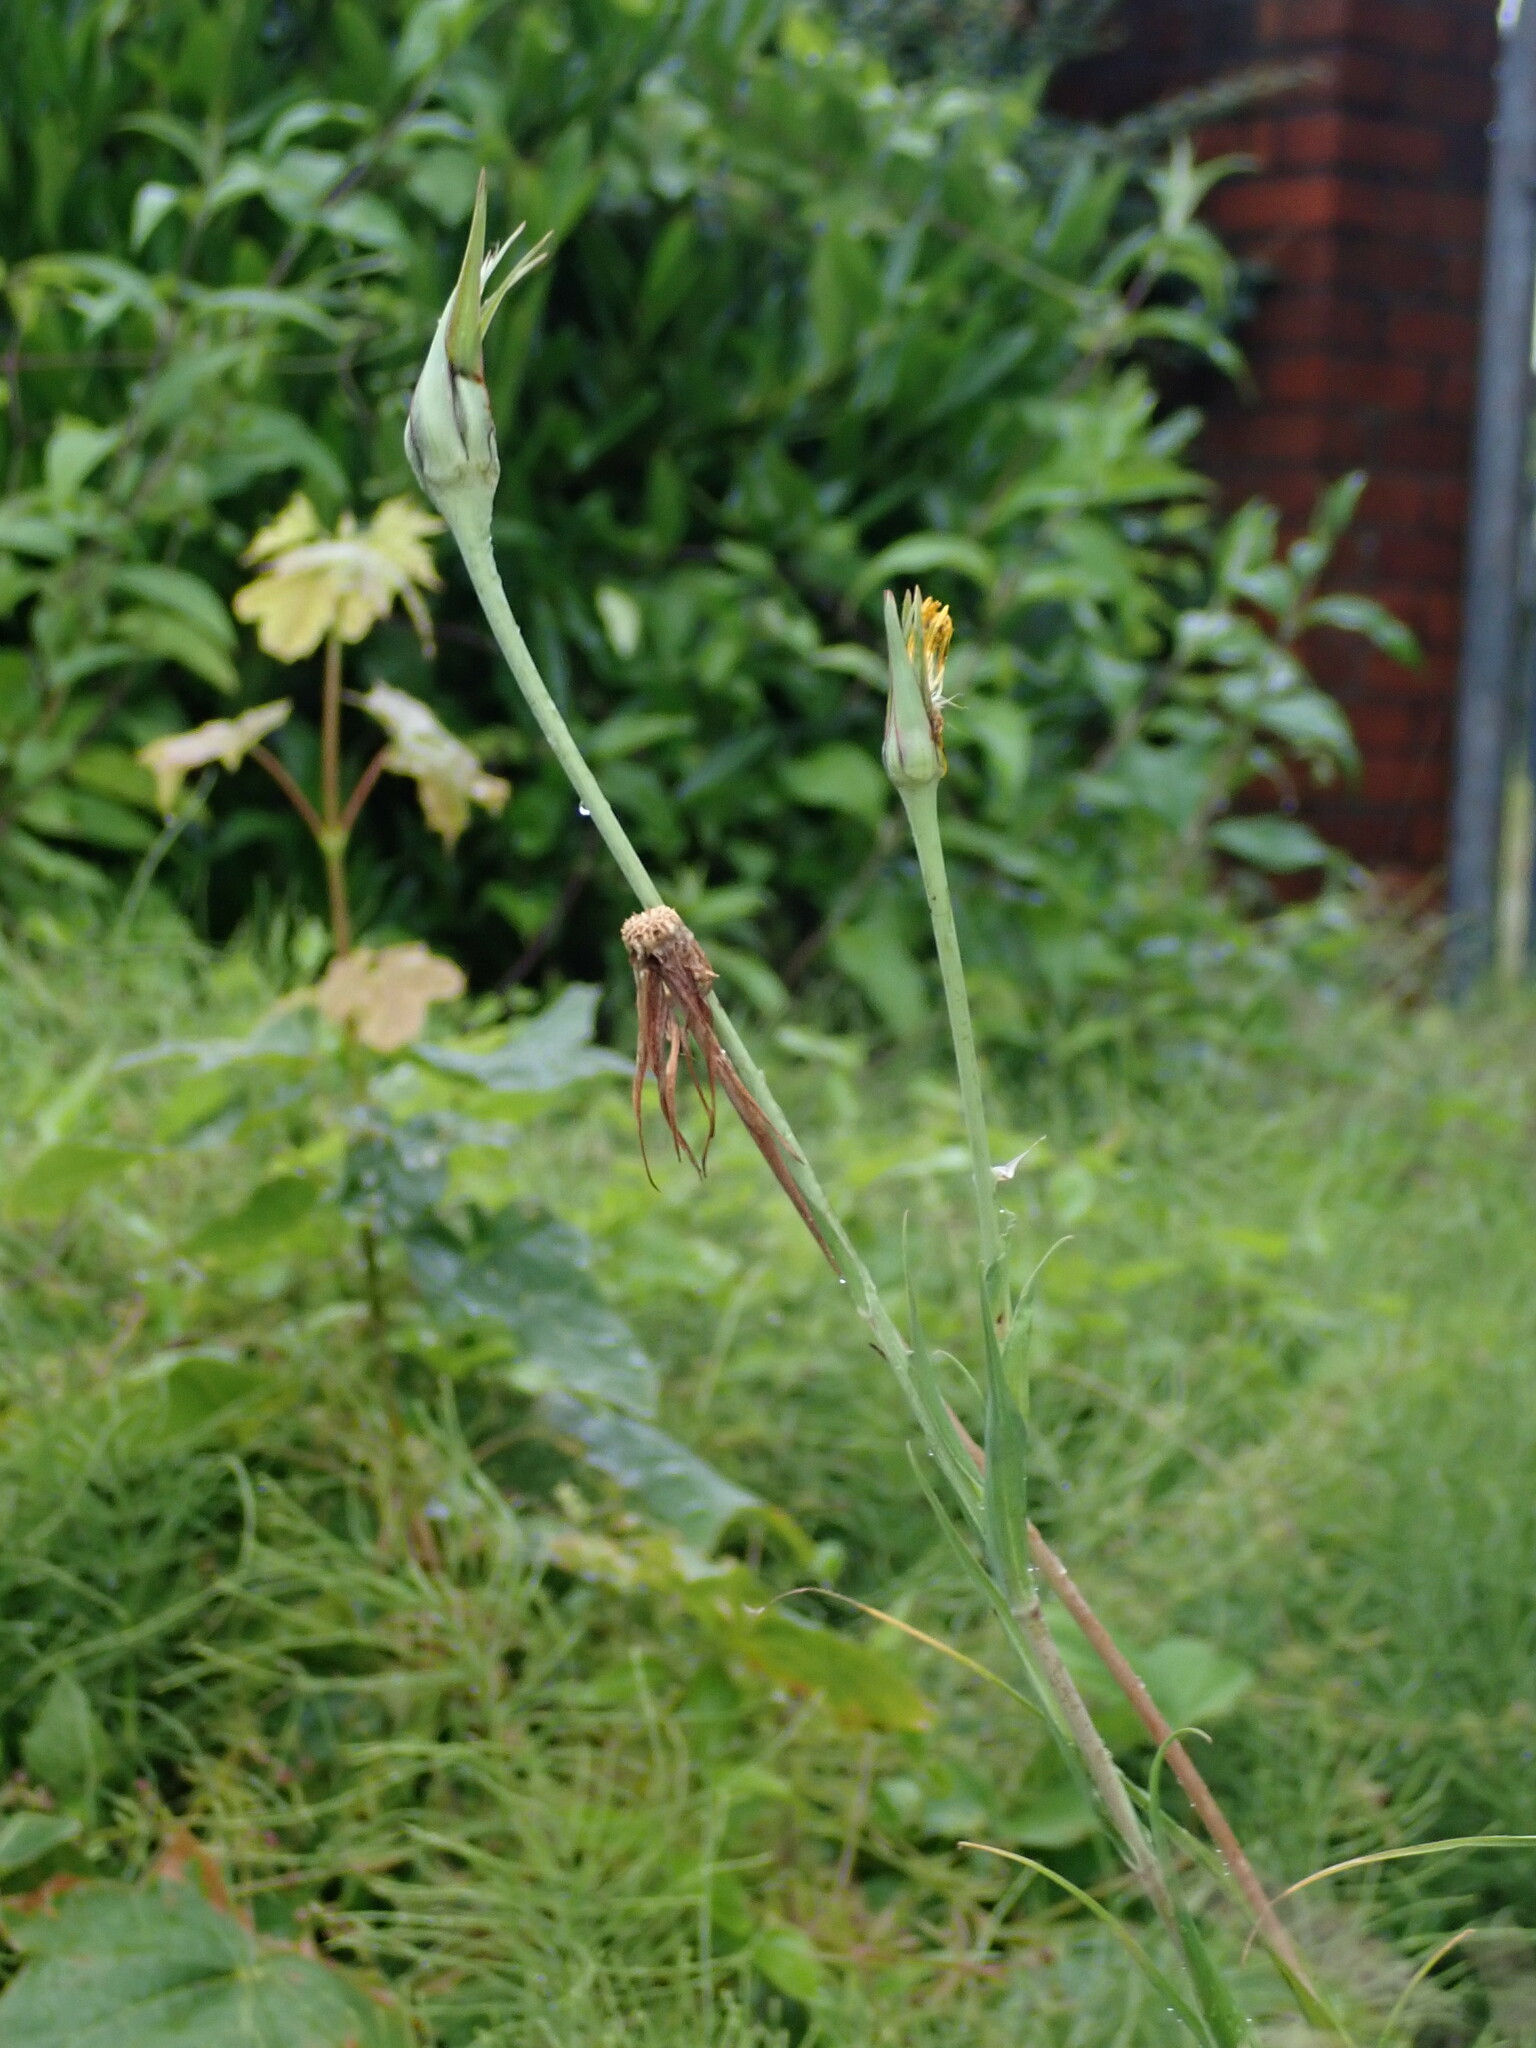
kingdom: Plantae
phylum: Tracheophyta
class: Magnoliopsida
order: Asterales
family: Asteraceae
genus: Tragopogon
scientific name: Tragopogon pratensis
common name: Goat's-beard
